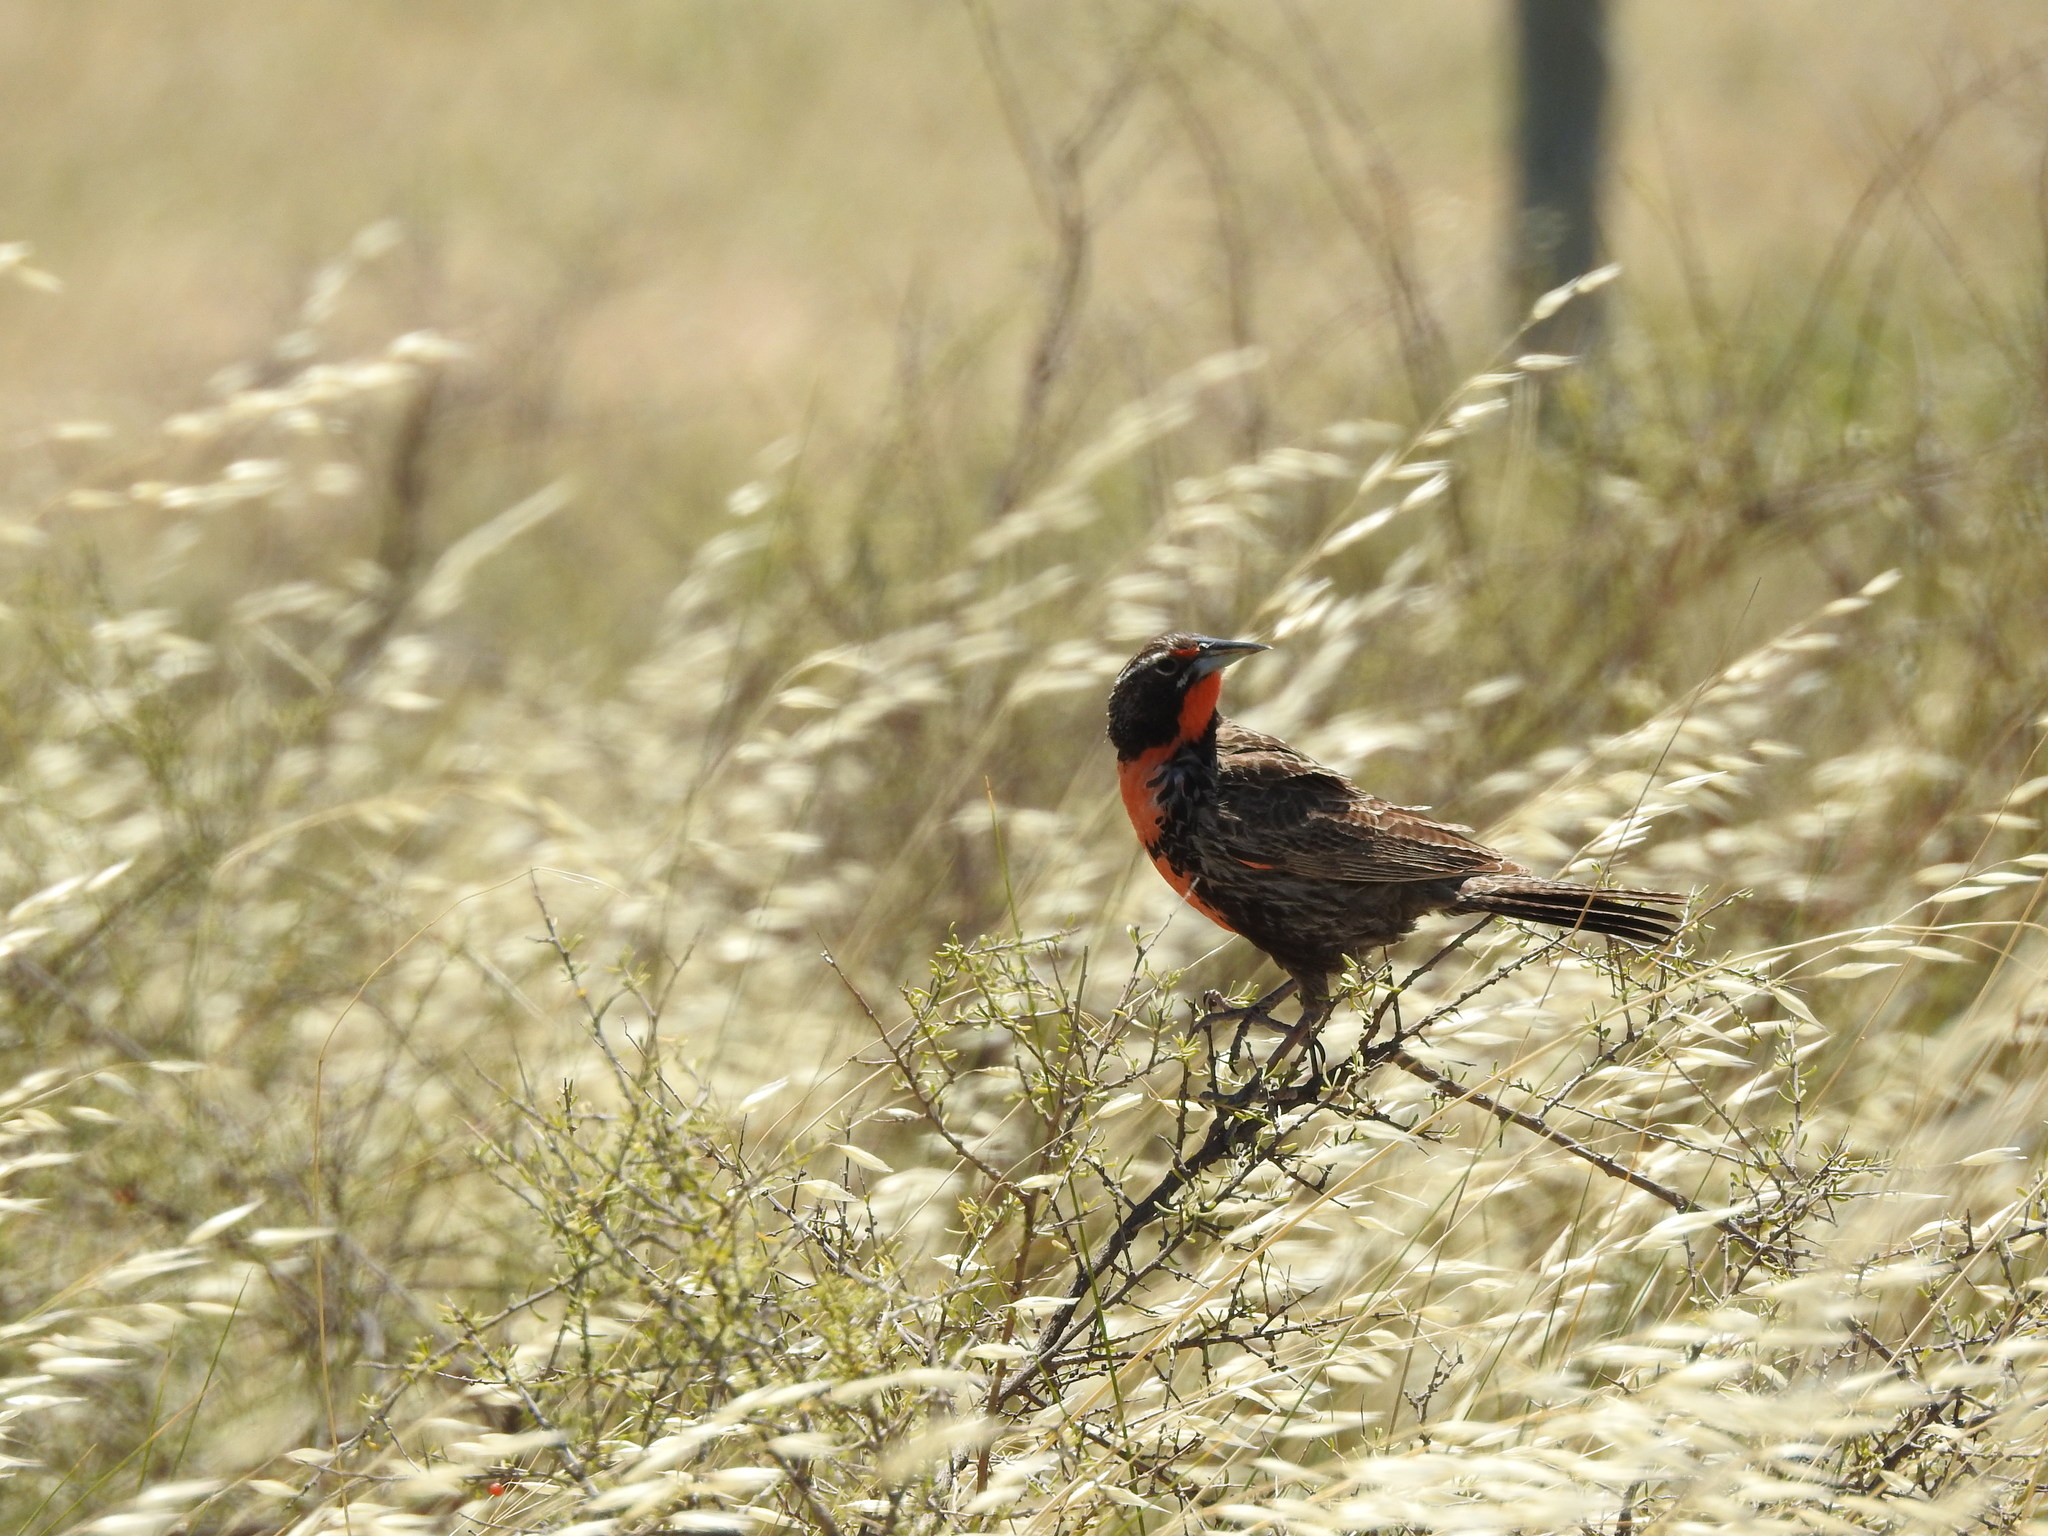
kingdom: Animalia
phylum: Chordata
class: Aves
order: Passeriformes
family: Icteridae
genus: Sturnella
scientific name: Sturnella loyca
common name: Long-tailed meadowlark
